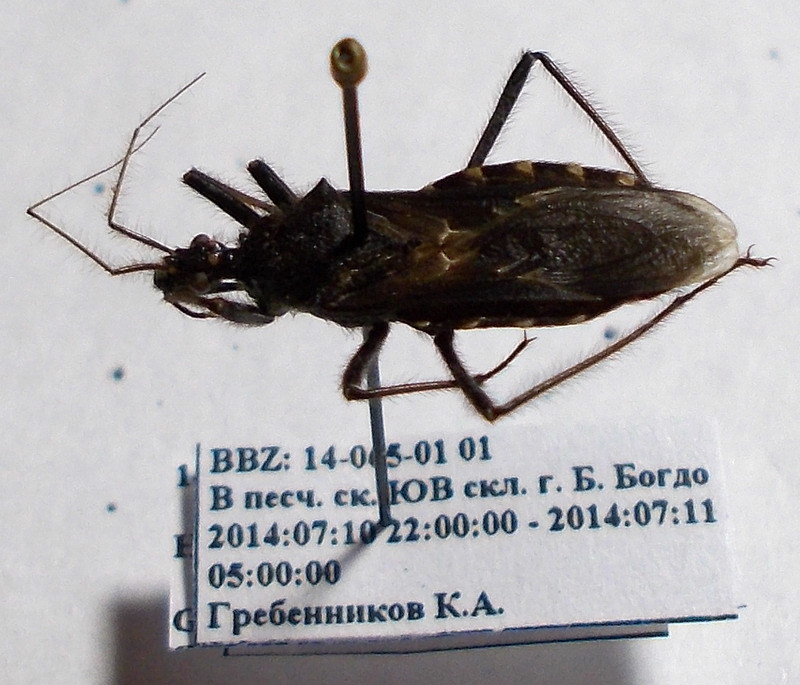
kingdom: Animalia
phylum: Arthropoda
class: Insecta
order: Hemiptera
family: Reduviidae
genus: Holotrichius
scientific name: Holotrichius bergrothi
